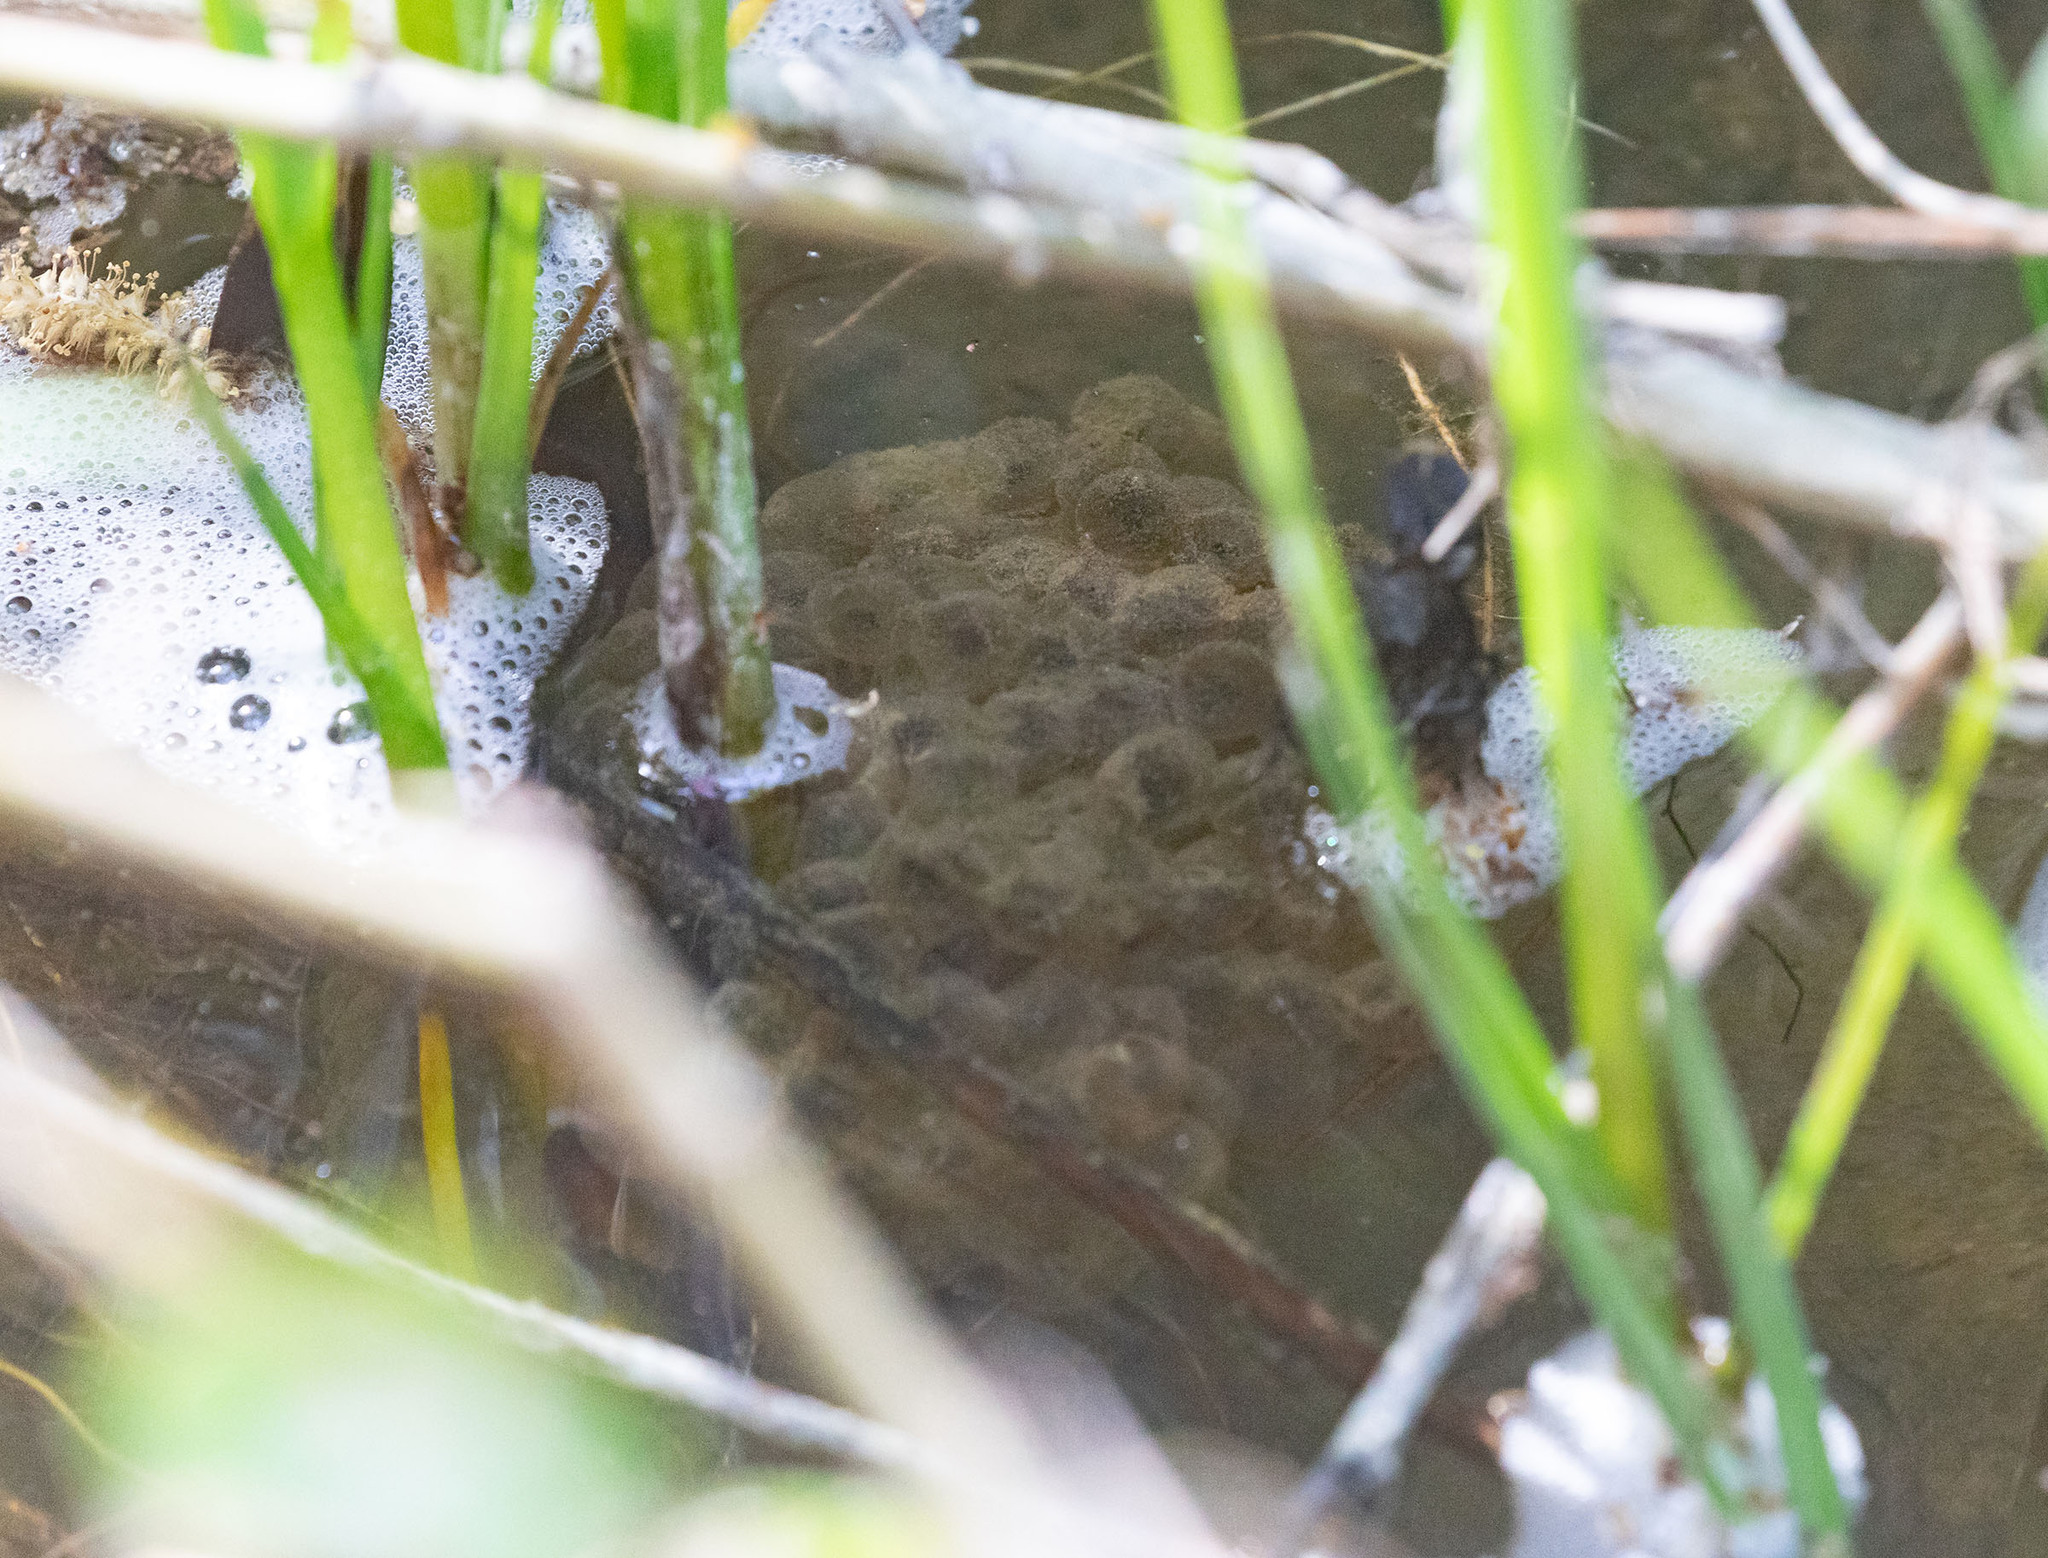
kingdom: Animalia
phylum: Chordata
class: Amphibia
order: Anura
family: Ranidae
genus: Rana
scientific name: Rana draytonii
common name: California red-legged frog
